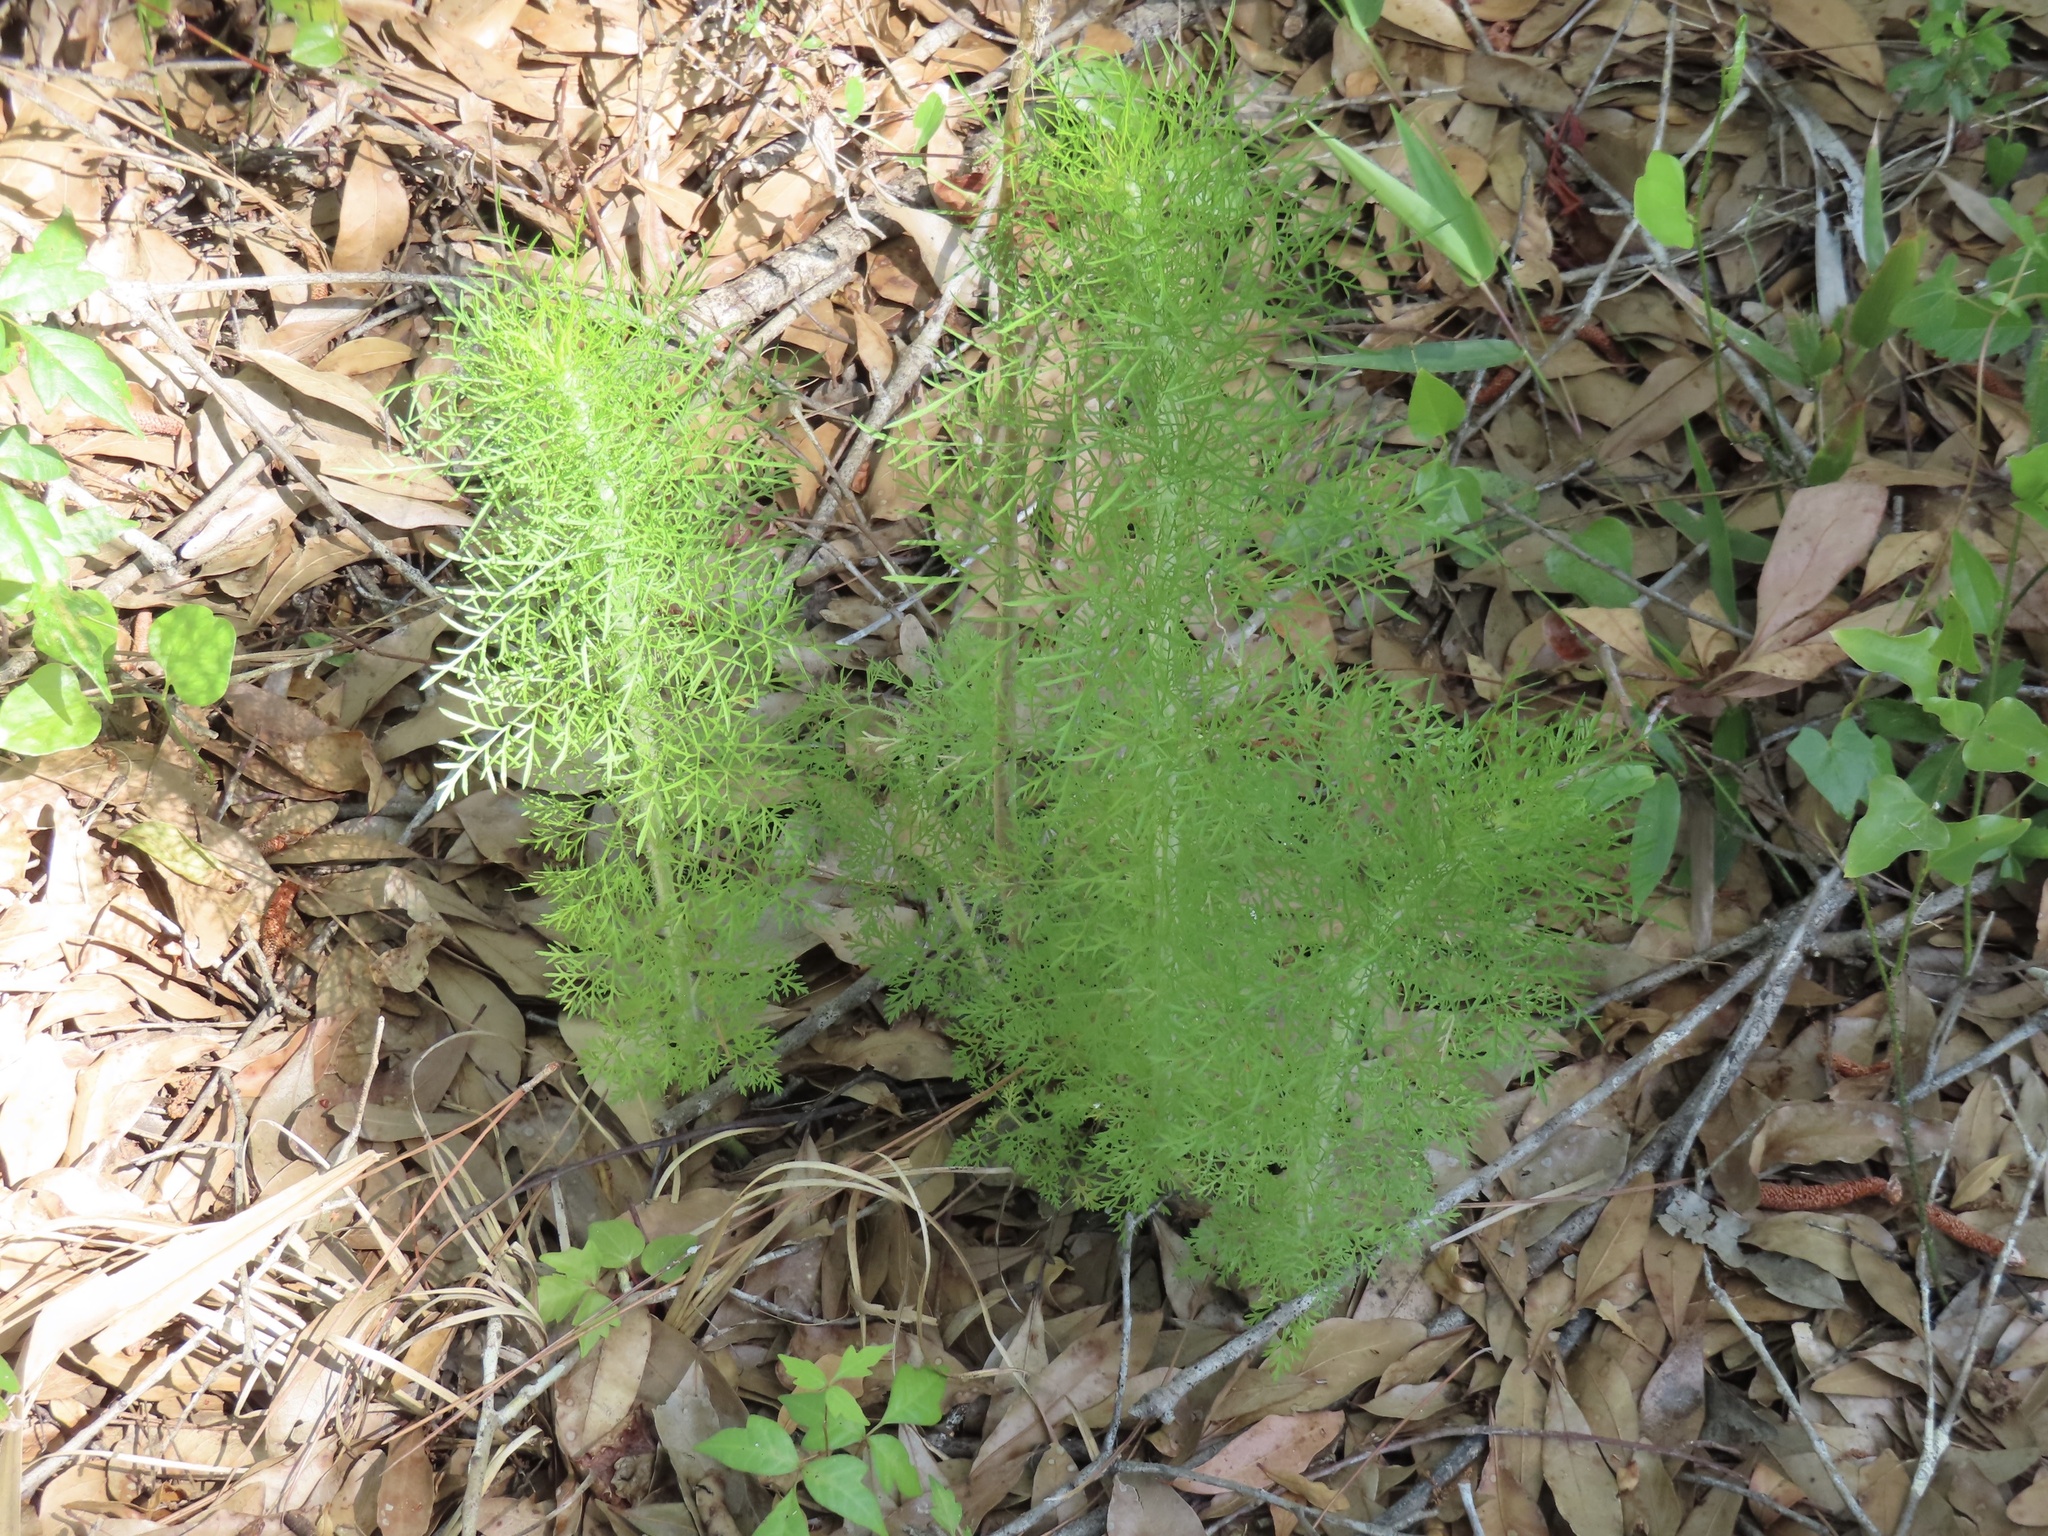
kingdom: Plantae
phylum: Tracheophyta
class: Magnoliopsida
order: Asterales
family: Asteraceae
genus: Eupatorium
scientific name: Eupatorium capillifolium
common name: Dog-fennel
